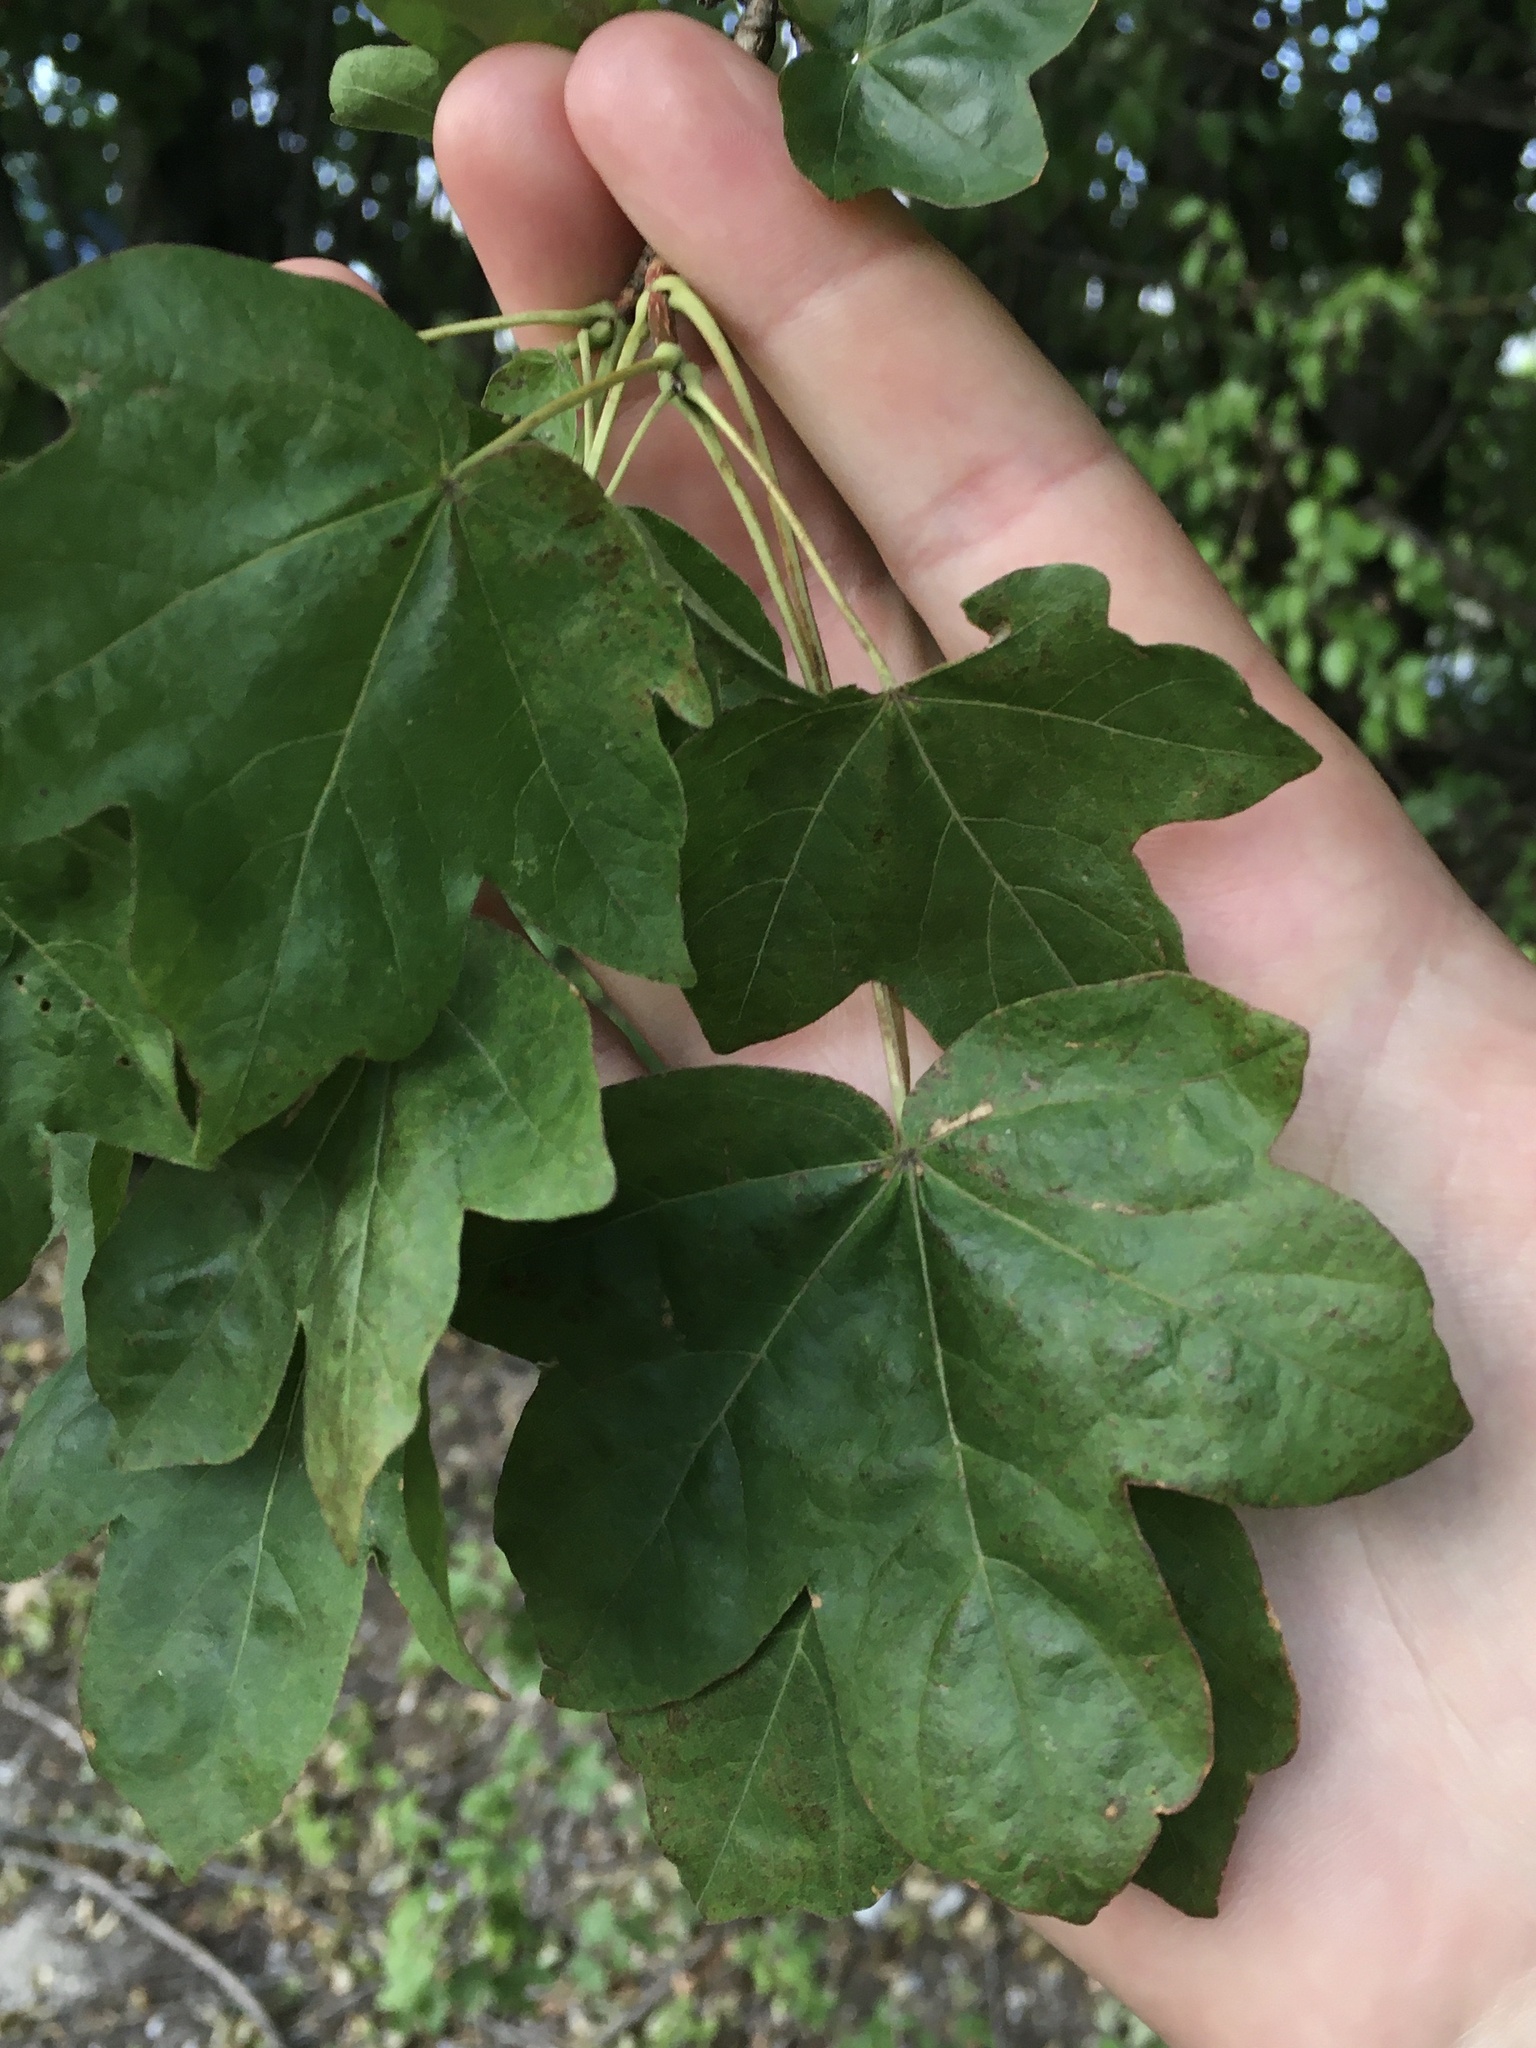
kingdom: Plantae
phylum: Tracheophyta
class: Magnoliopsida
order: Sapindales
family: Sapindaceae
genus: Acer
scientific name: Acer campestre
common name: Field maple
